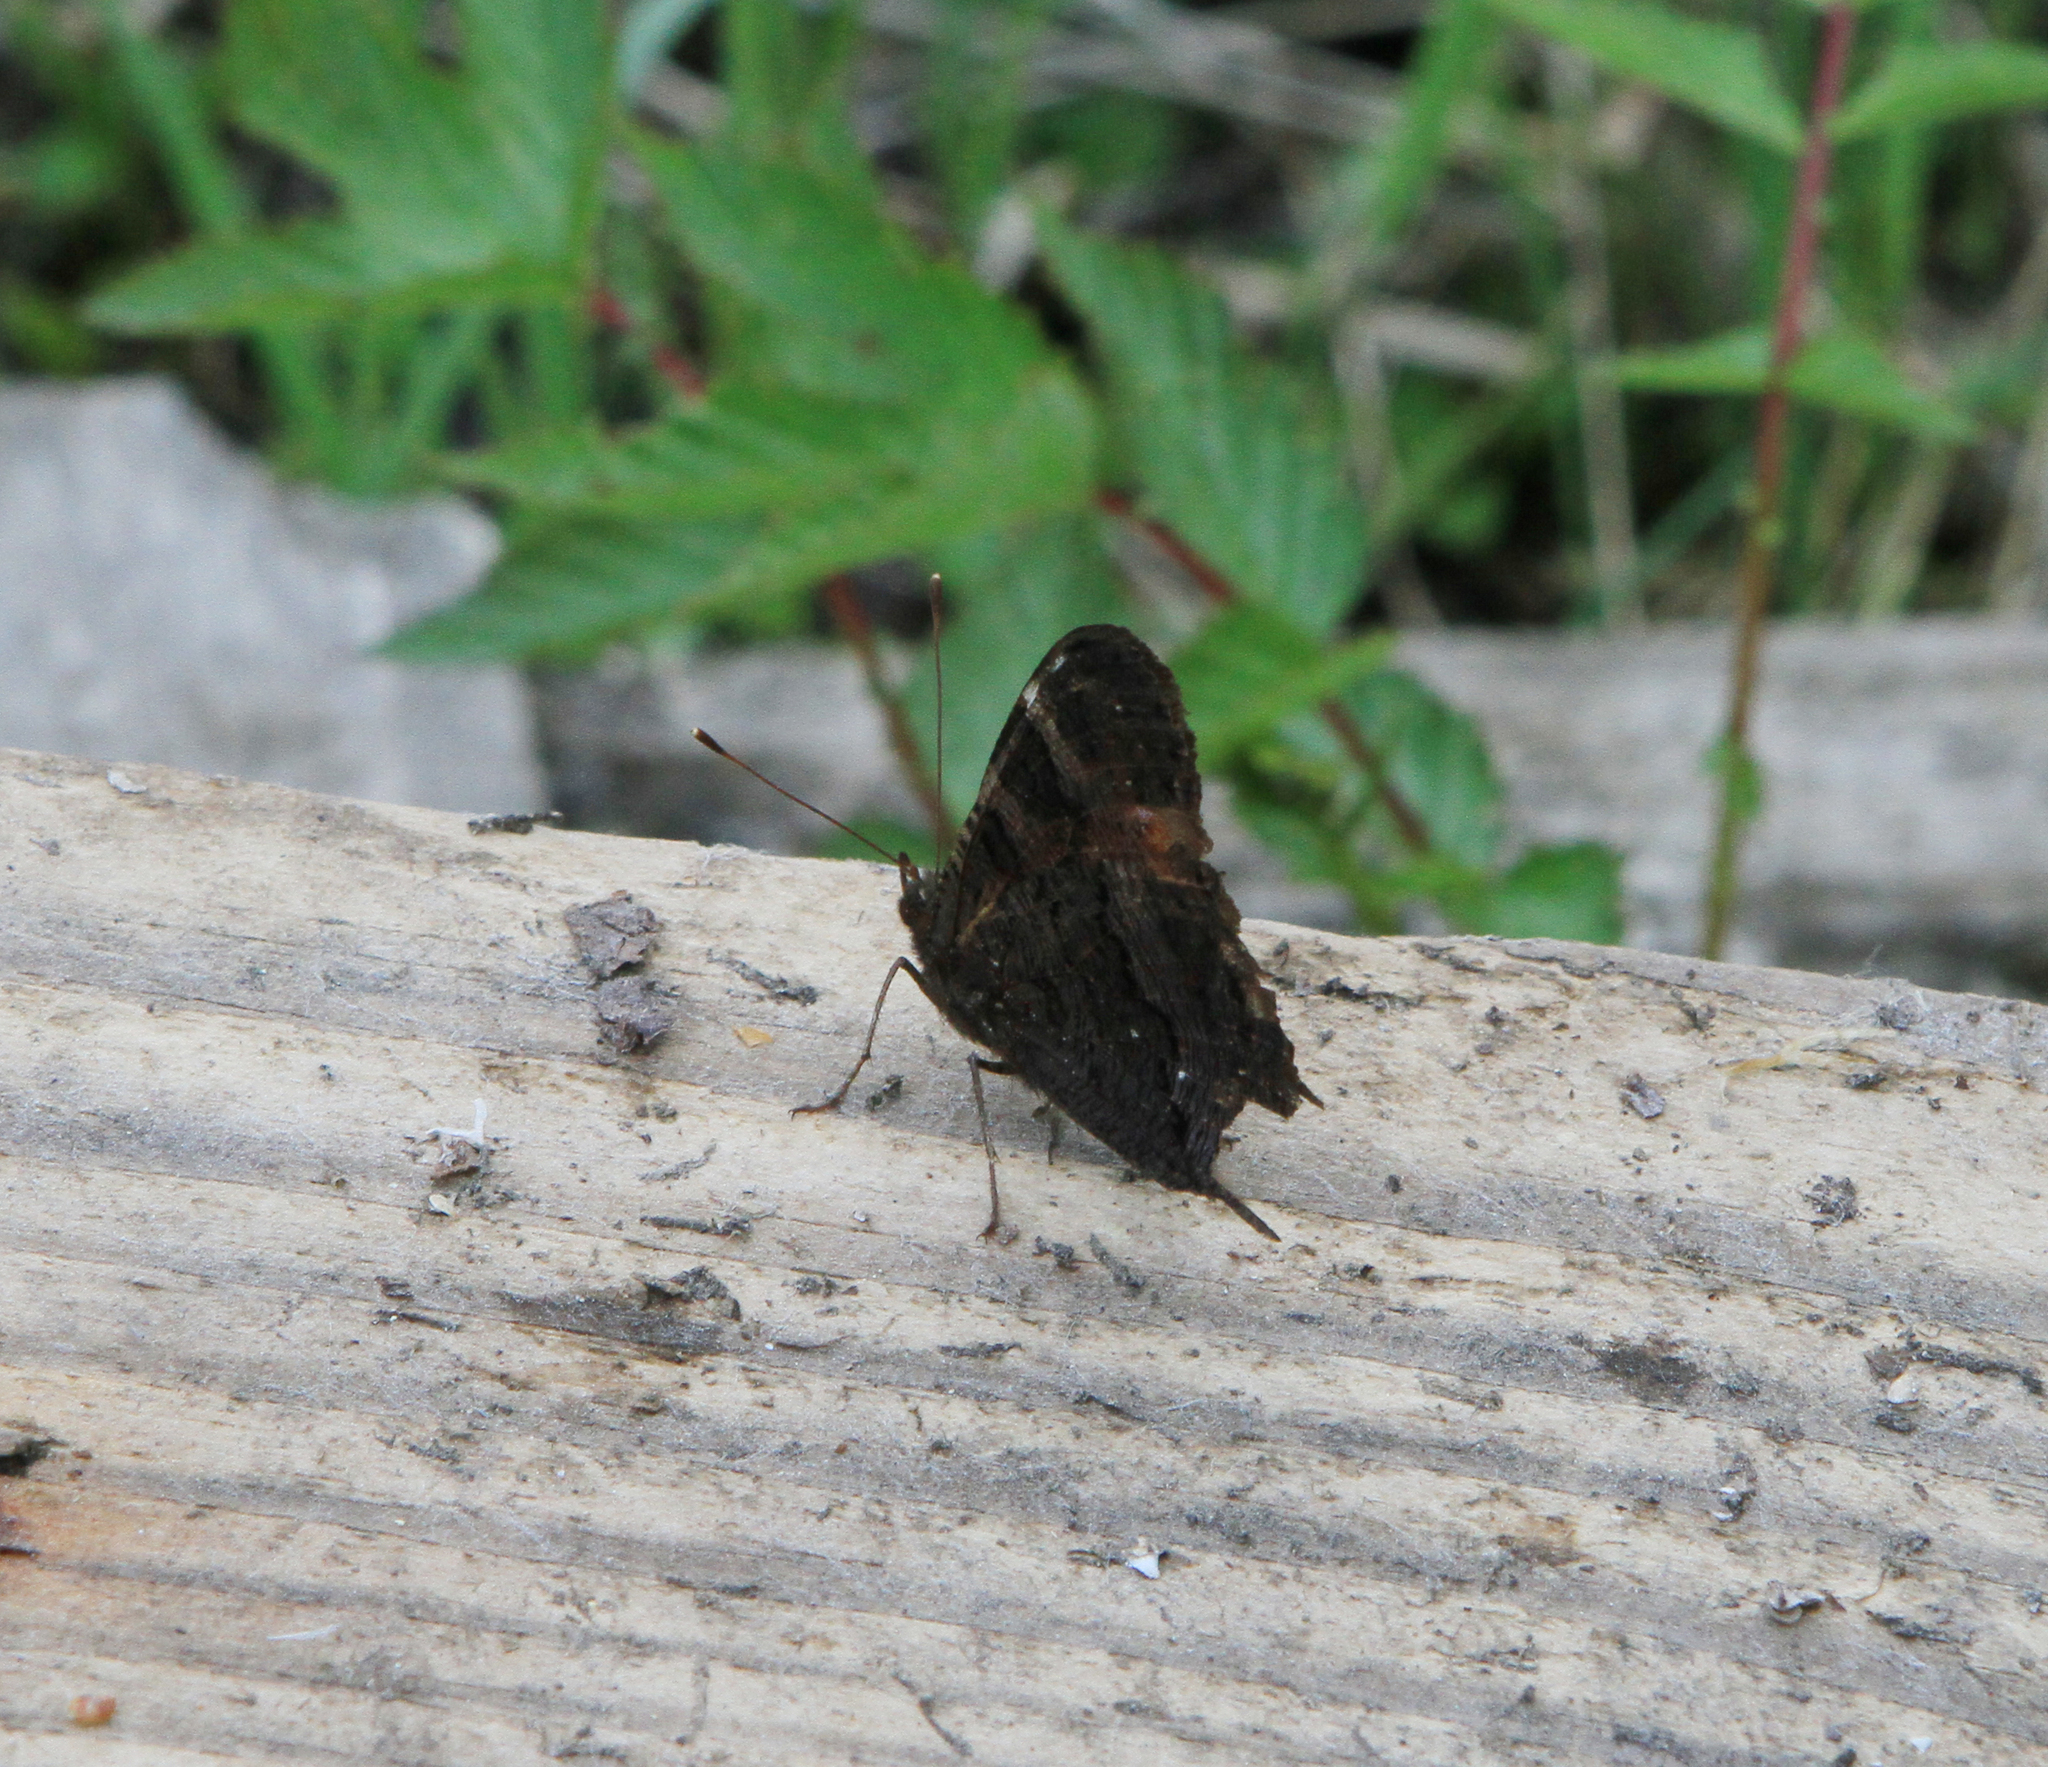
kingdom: Animalia
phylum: Arthropoda
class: Insecta
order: Lepidoptera
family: Nymphalidae
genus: Aglais
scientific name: Aglais io
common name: Peacock
